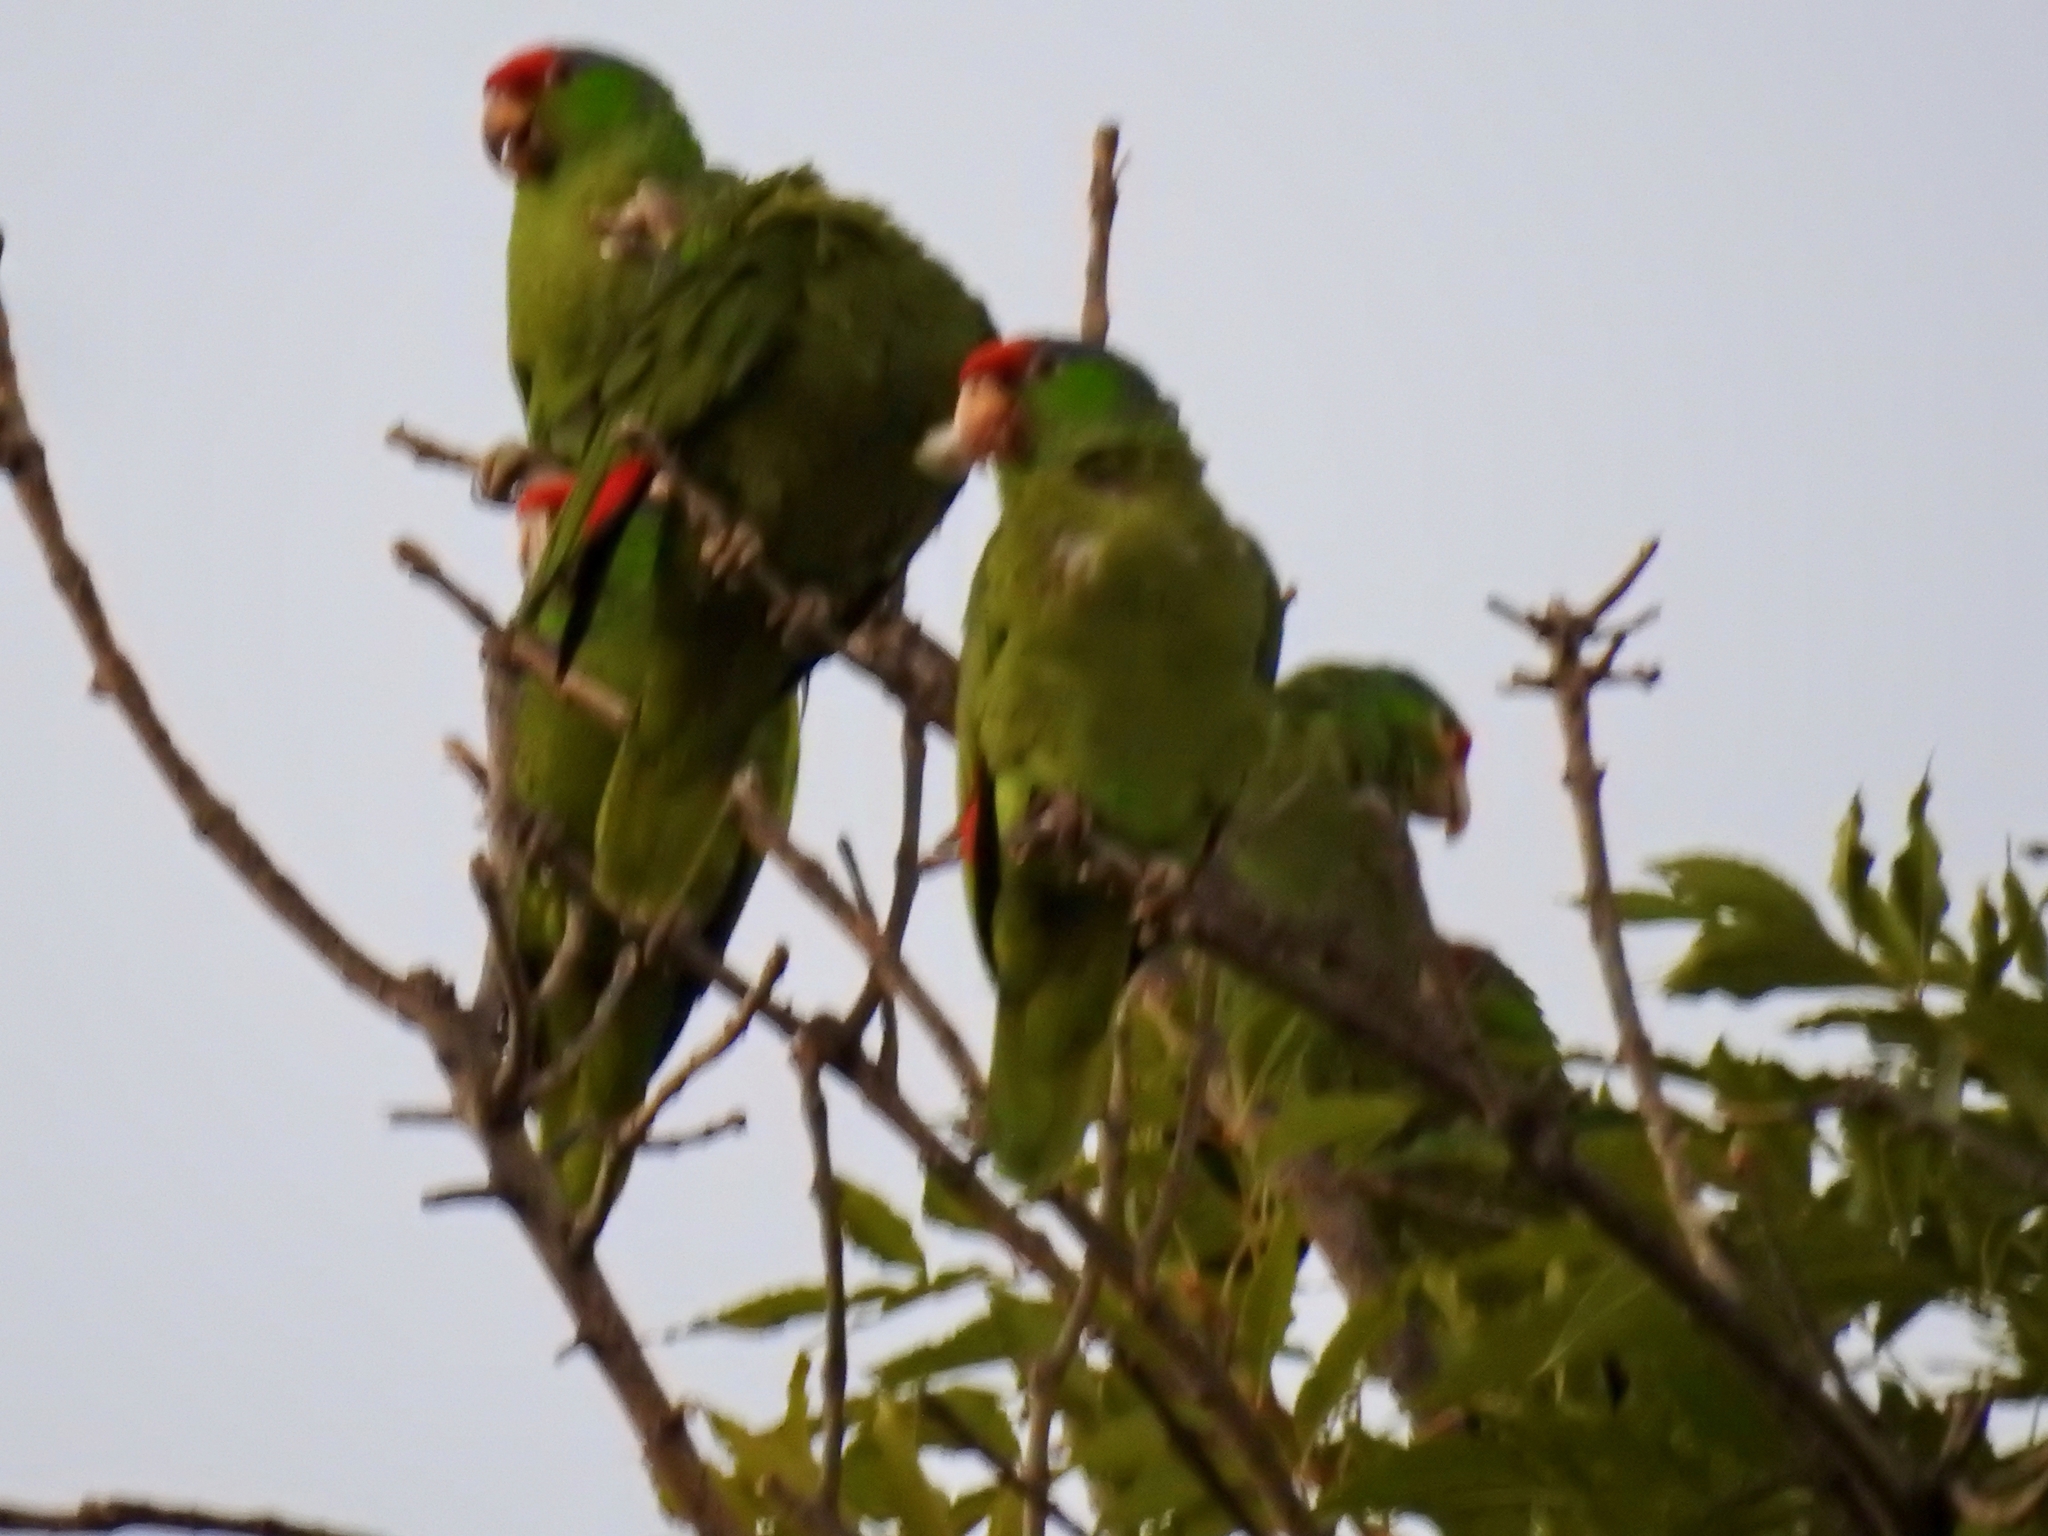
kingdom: Animalia
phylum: Chordata
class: Aves
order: Psittaciformes
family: Psittacidae
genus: Amazona
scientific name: Amazona viridigenalis
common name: Red-crowned amazon
